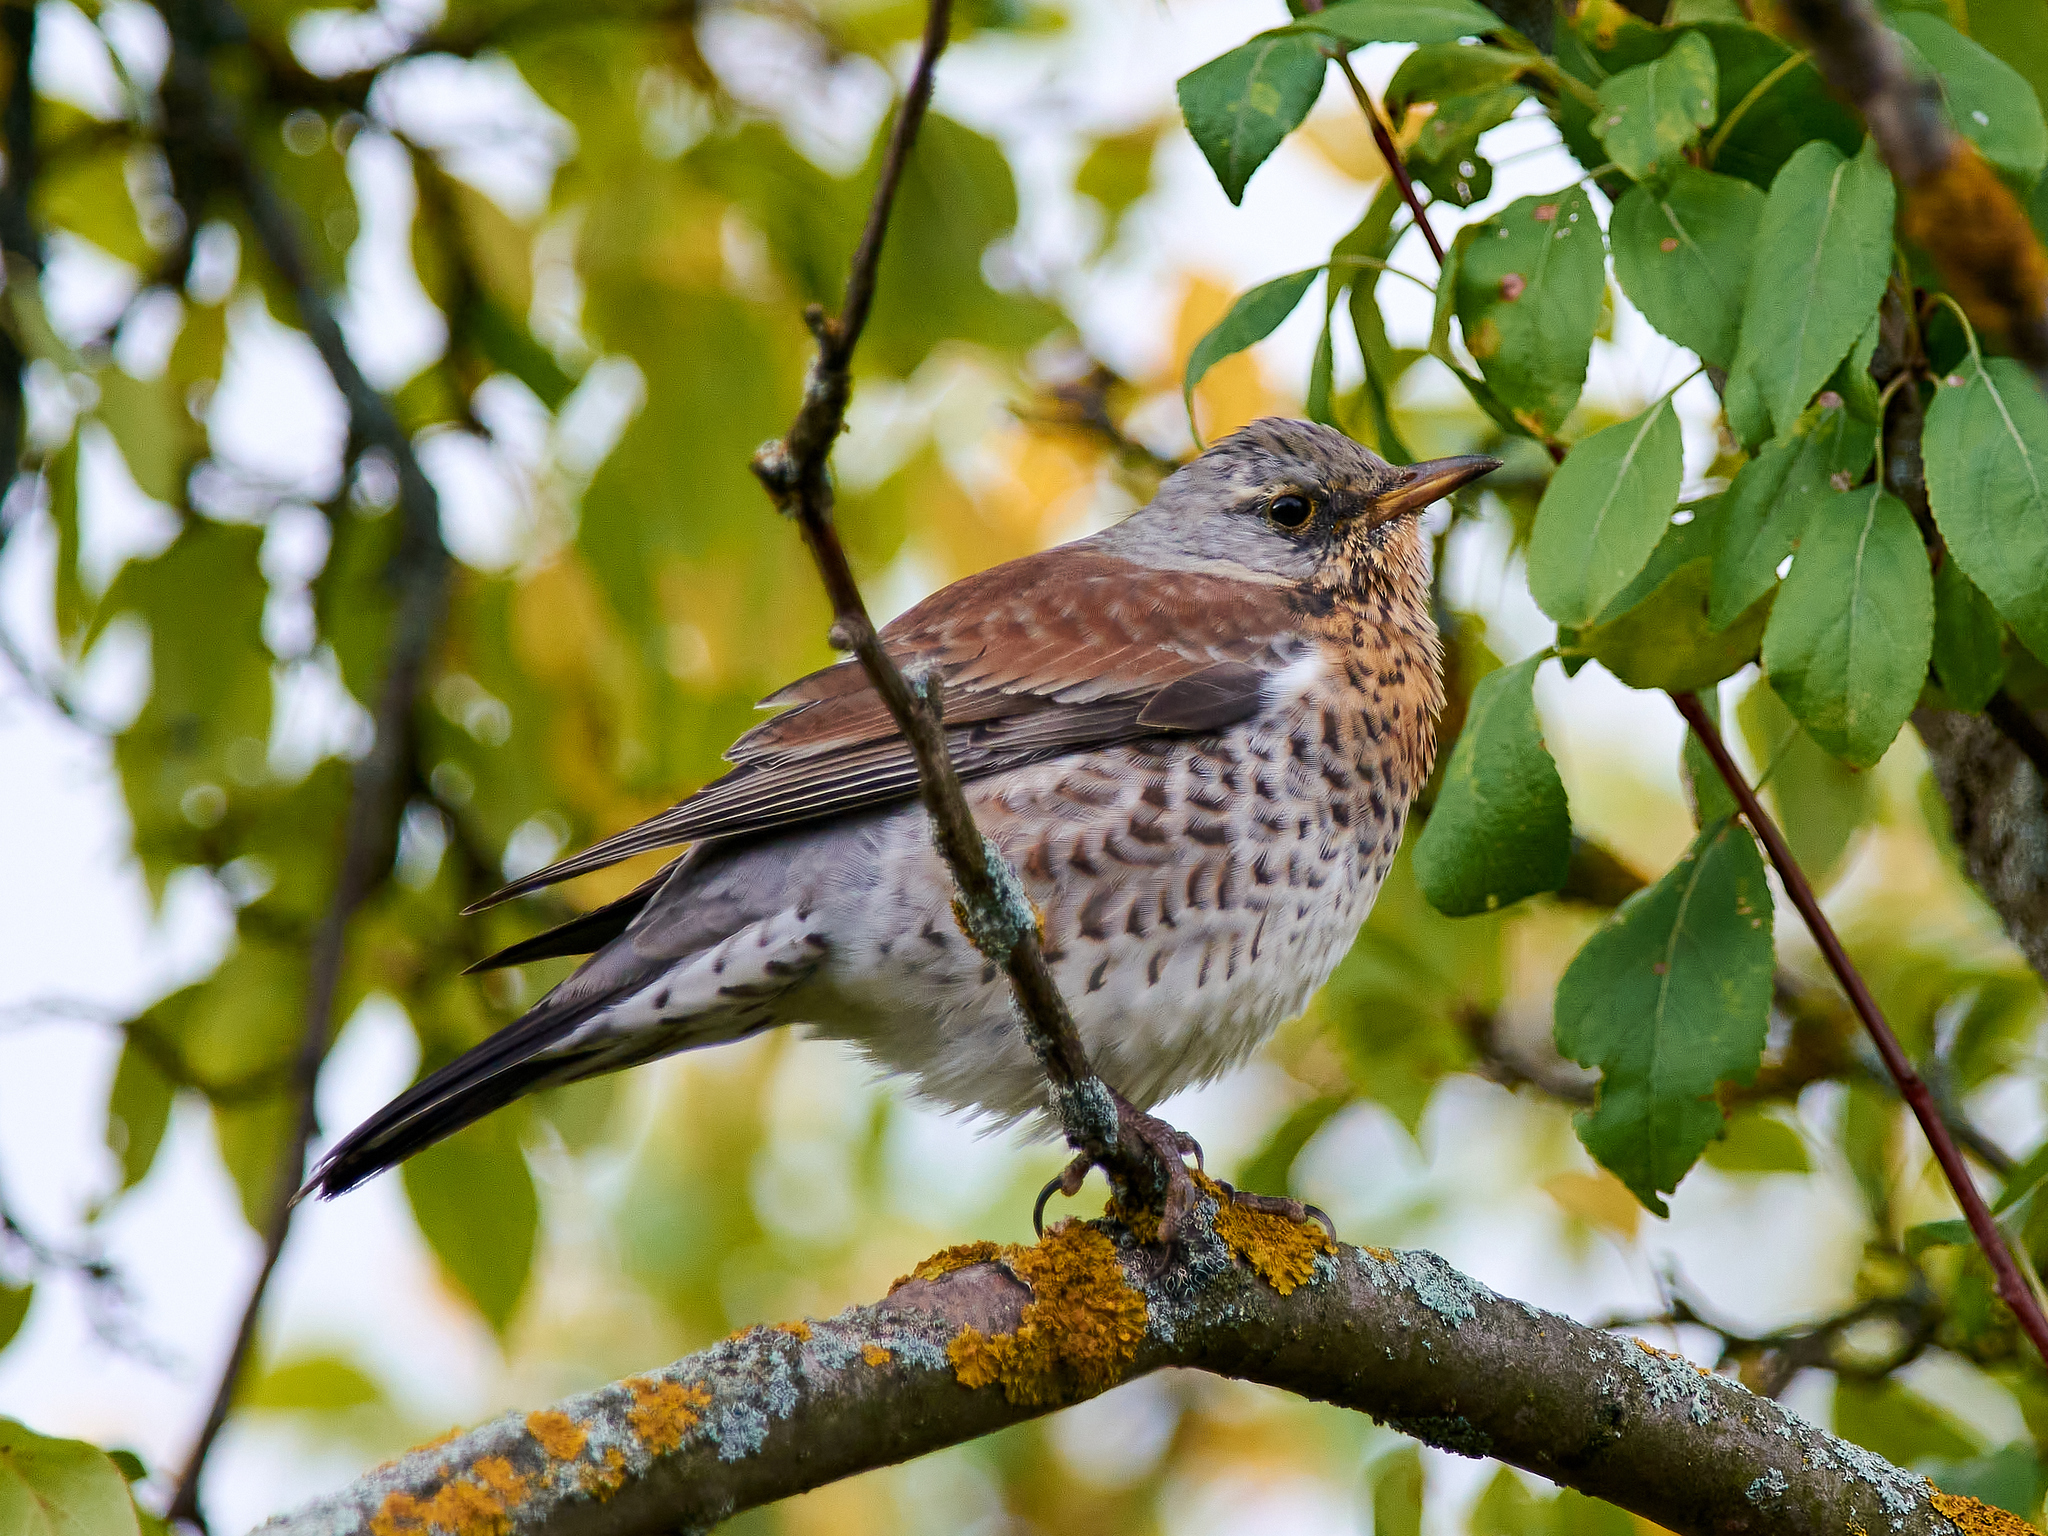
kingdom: Animalia
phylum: Chordata
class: Aves
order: Passeriformes
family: Turdidae
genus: Turdus
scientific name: Turdus pilaris
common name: Fieldfare
